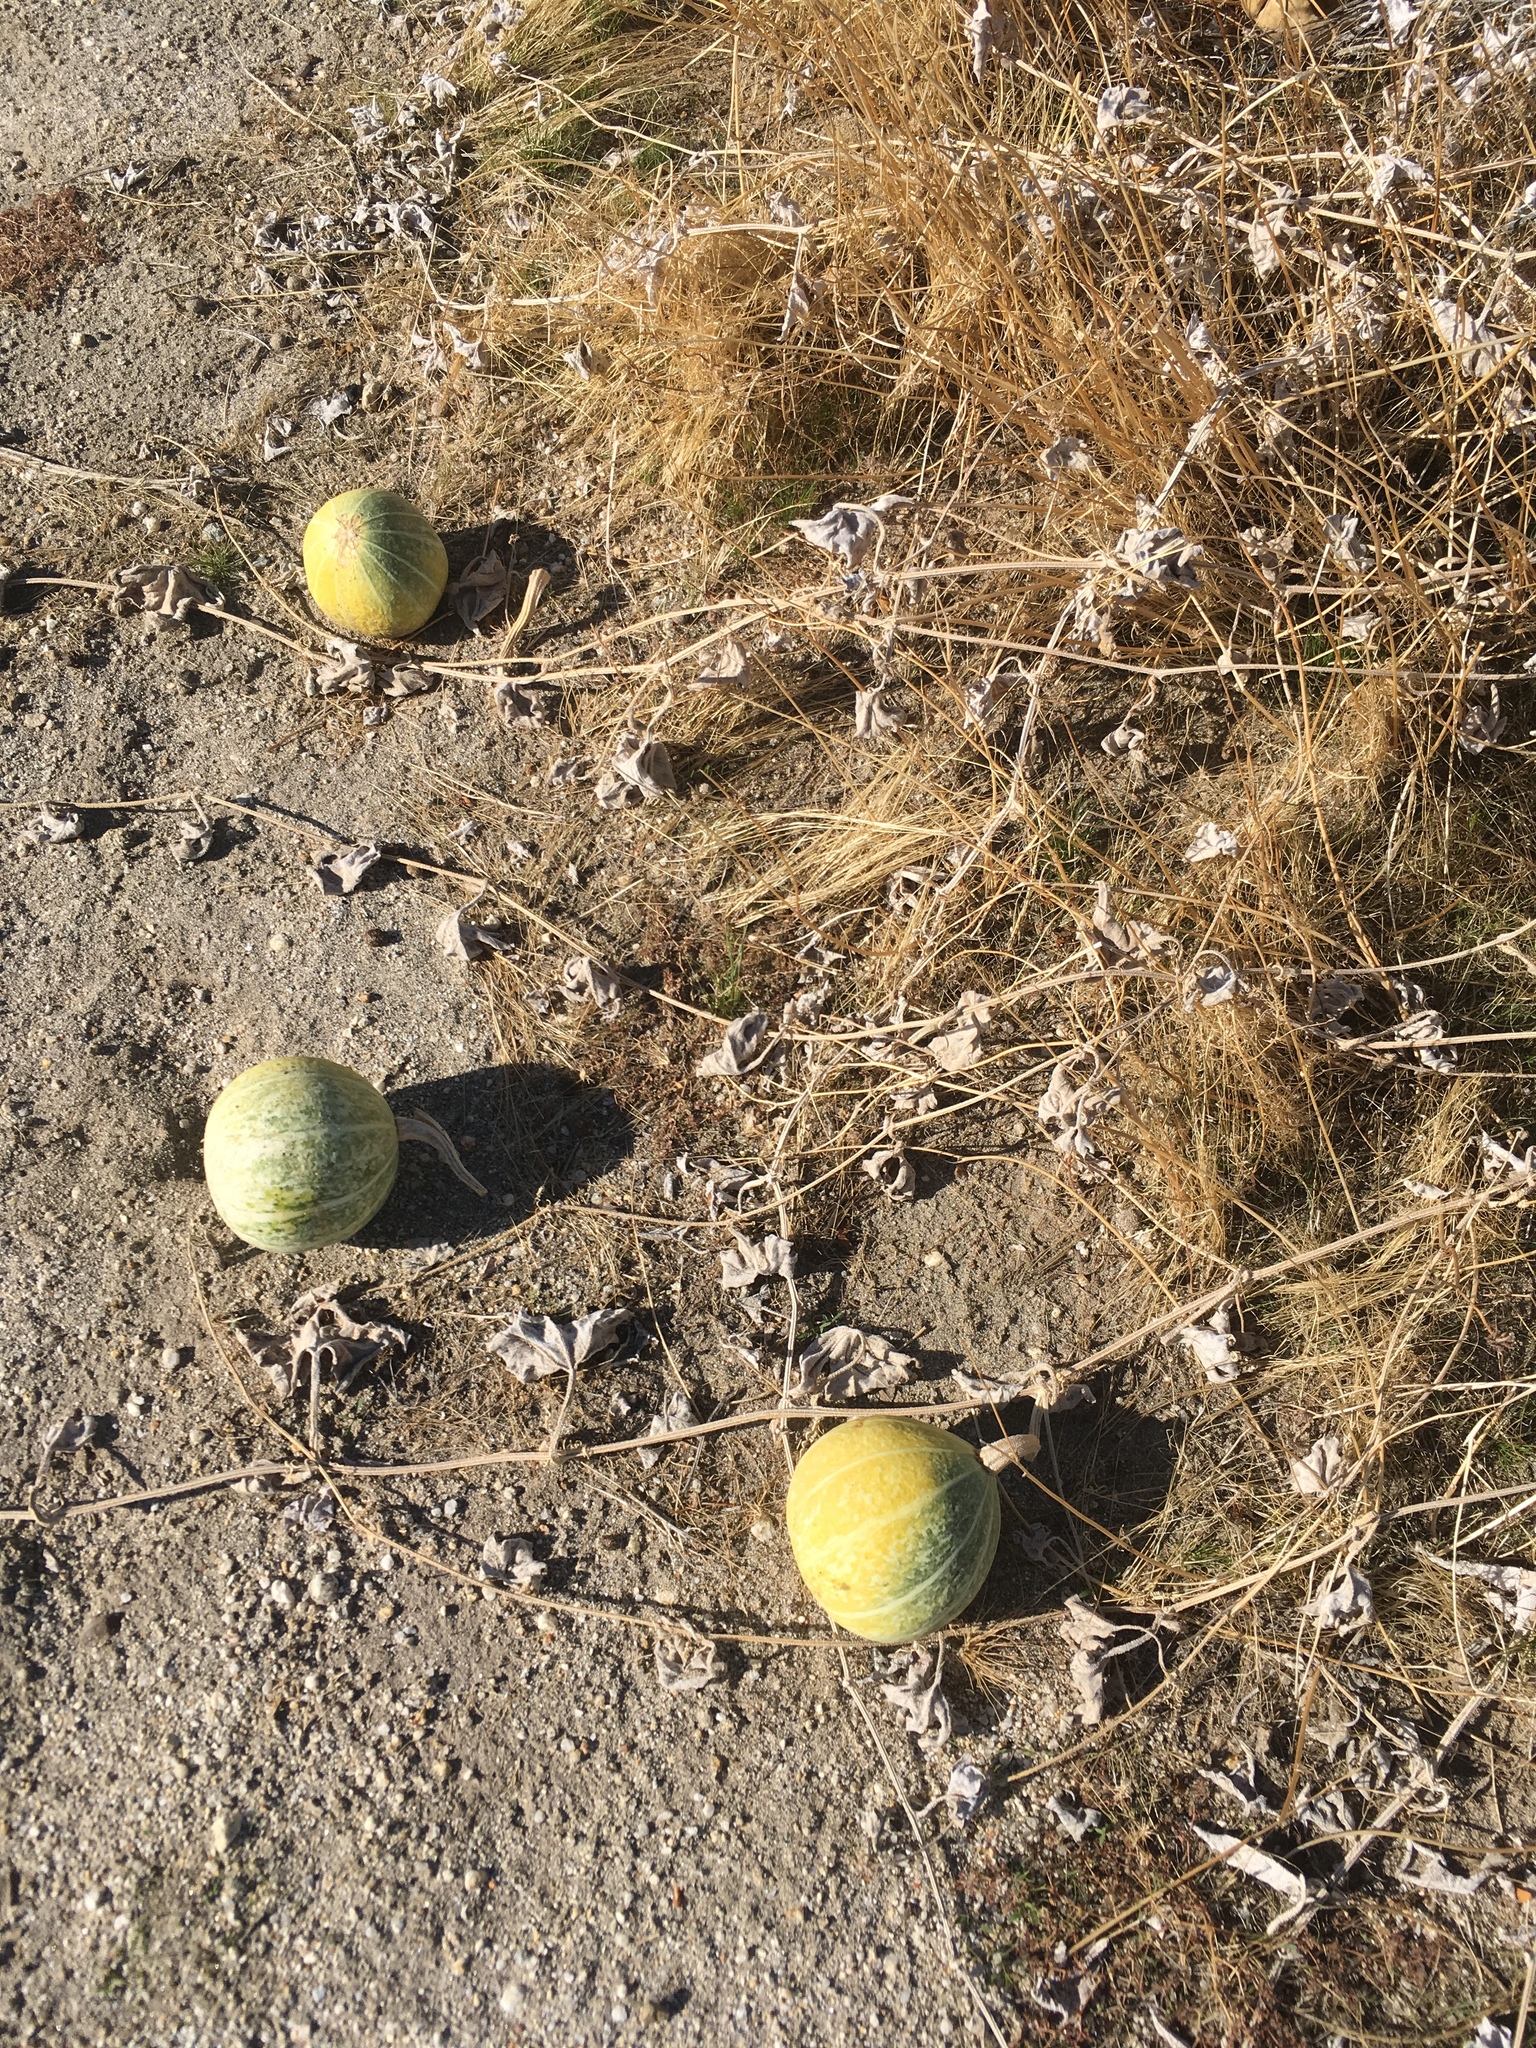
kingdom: Plantae
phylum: Tracheophyta
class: Magnoliopsida
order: Cucurbitales
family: Cucurbitaceae
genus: Cucurbita
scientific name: Cucurbita palmata
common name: Coyote-melon
